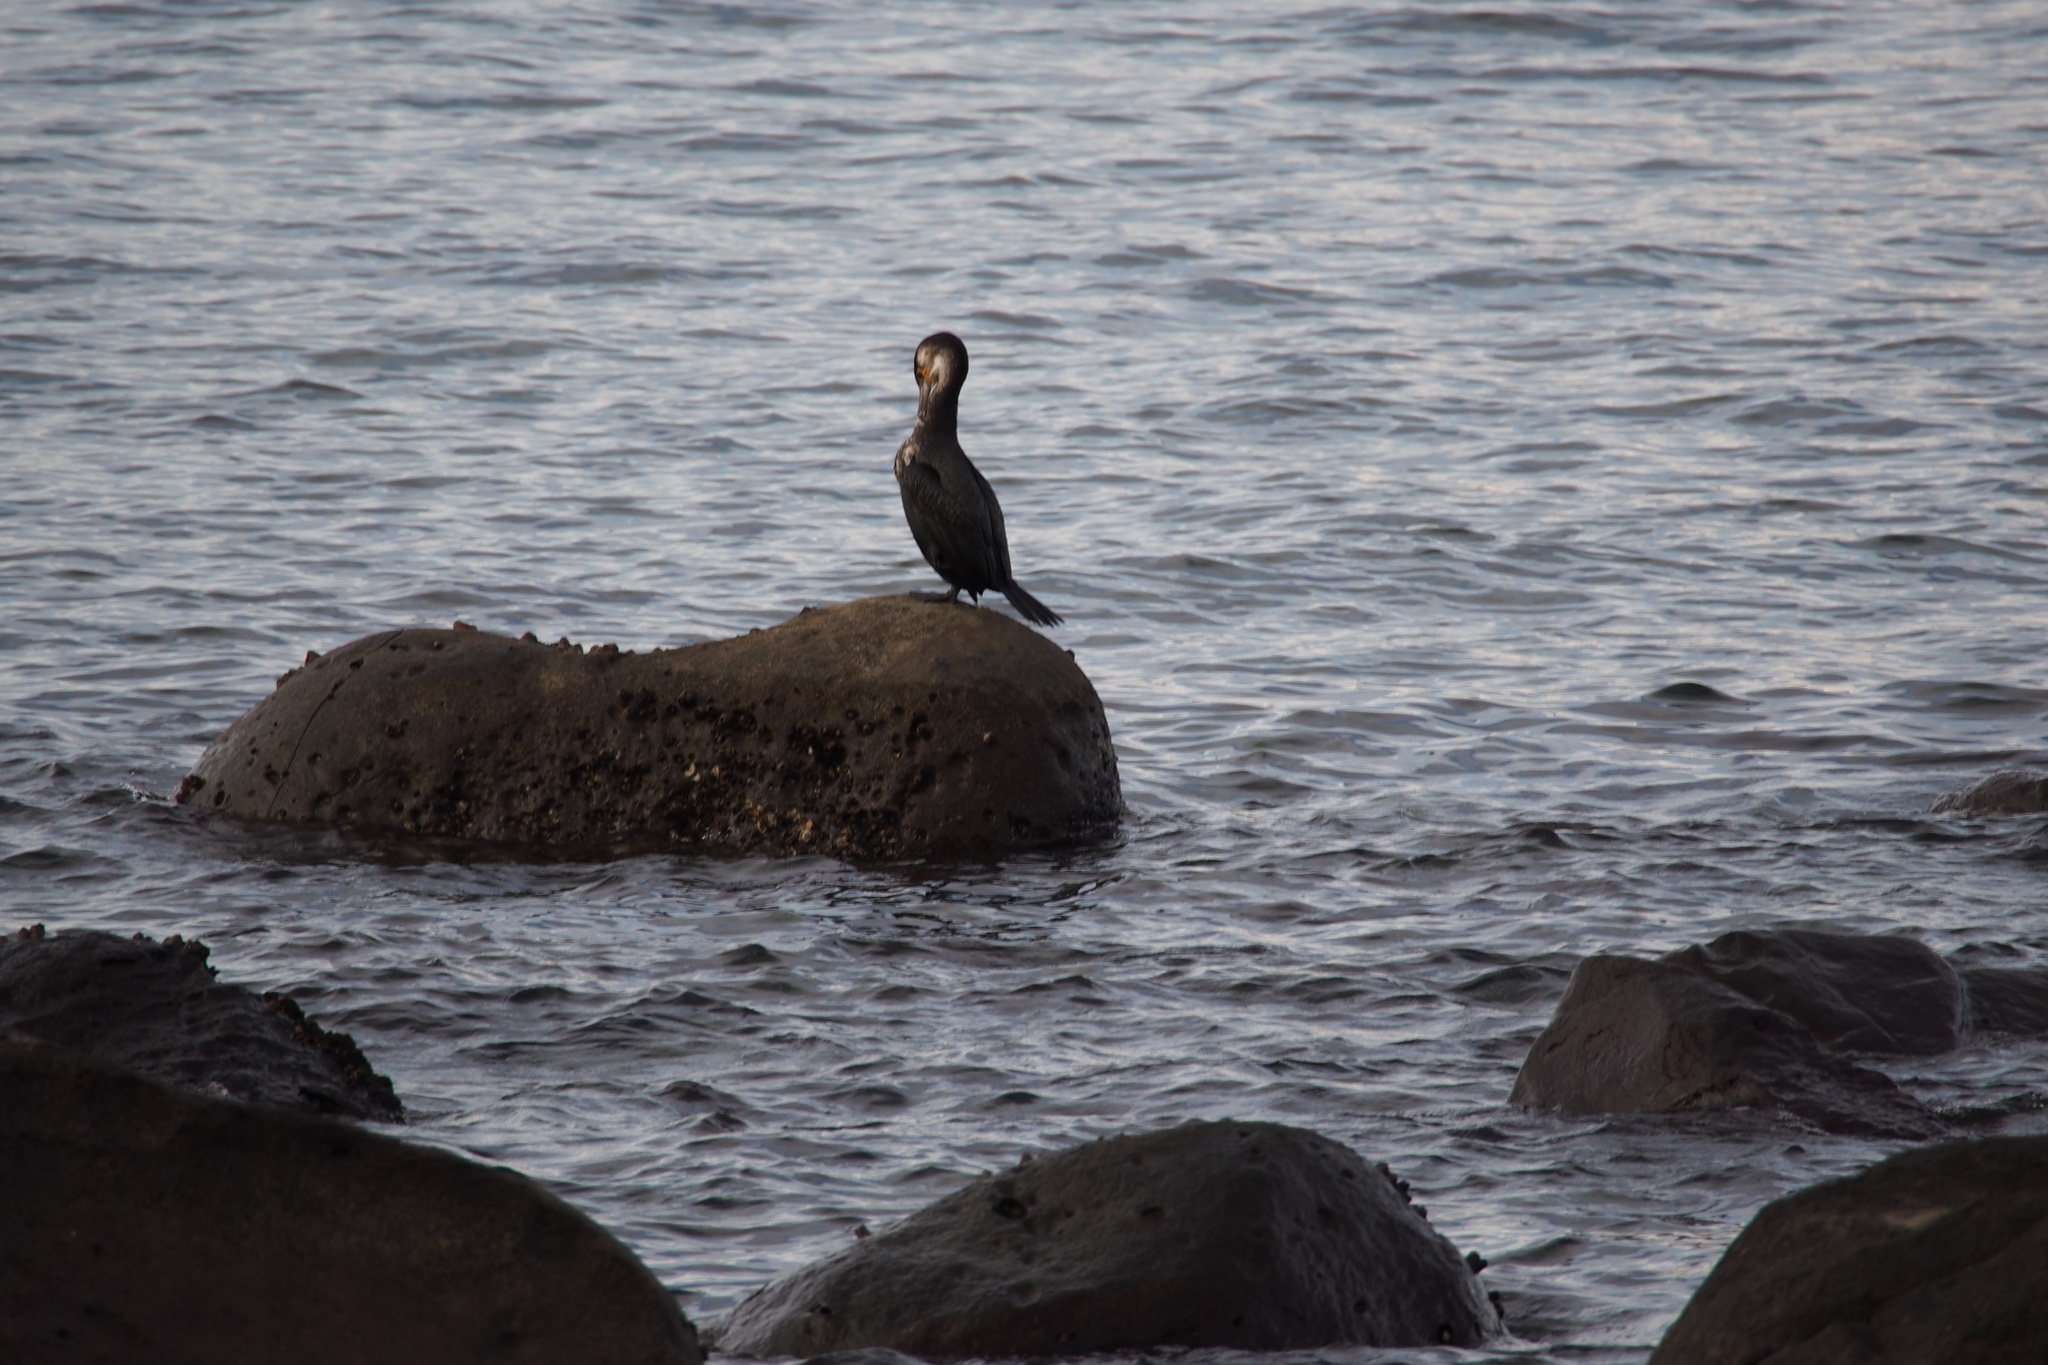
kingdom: Animalia
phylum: Chordata
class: Aves
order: Suliformes
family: Phalacrocoracidae
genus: Phalacrocorax
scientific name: Phalacrocorax capillatus
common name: Japanese cormorant
